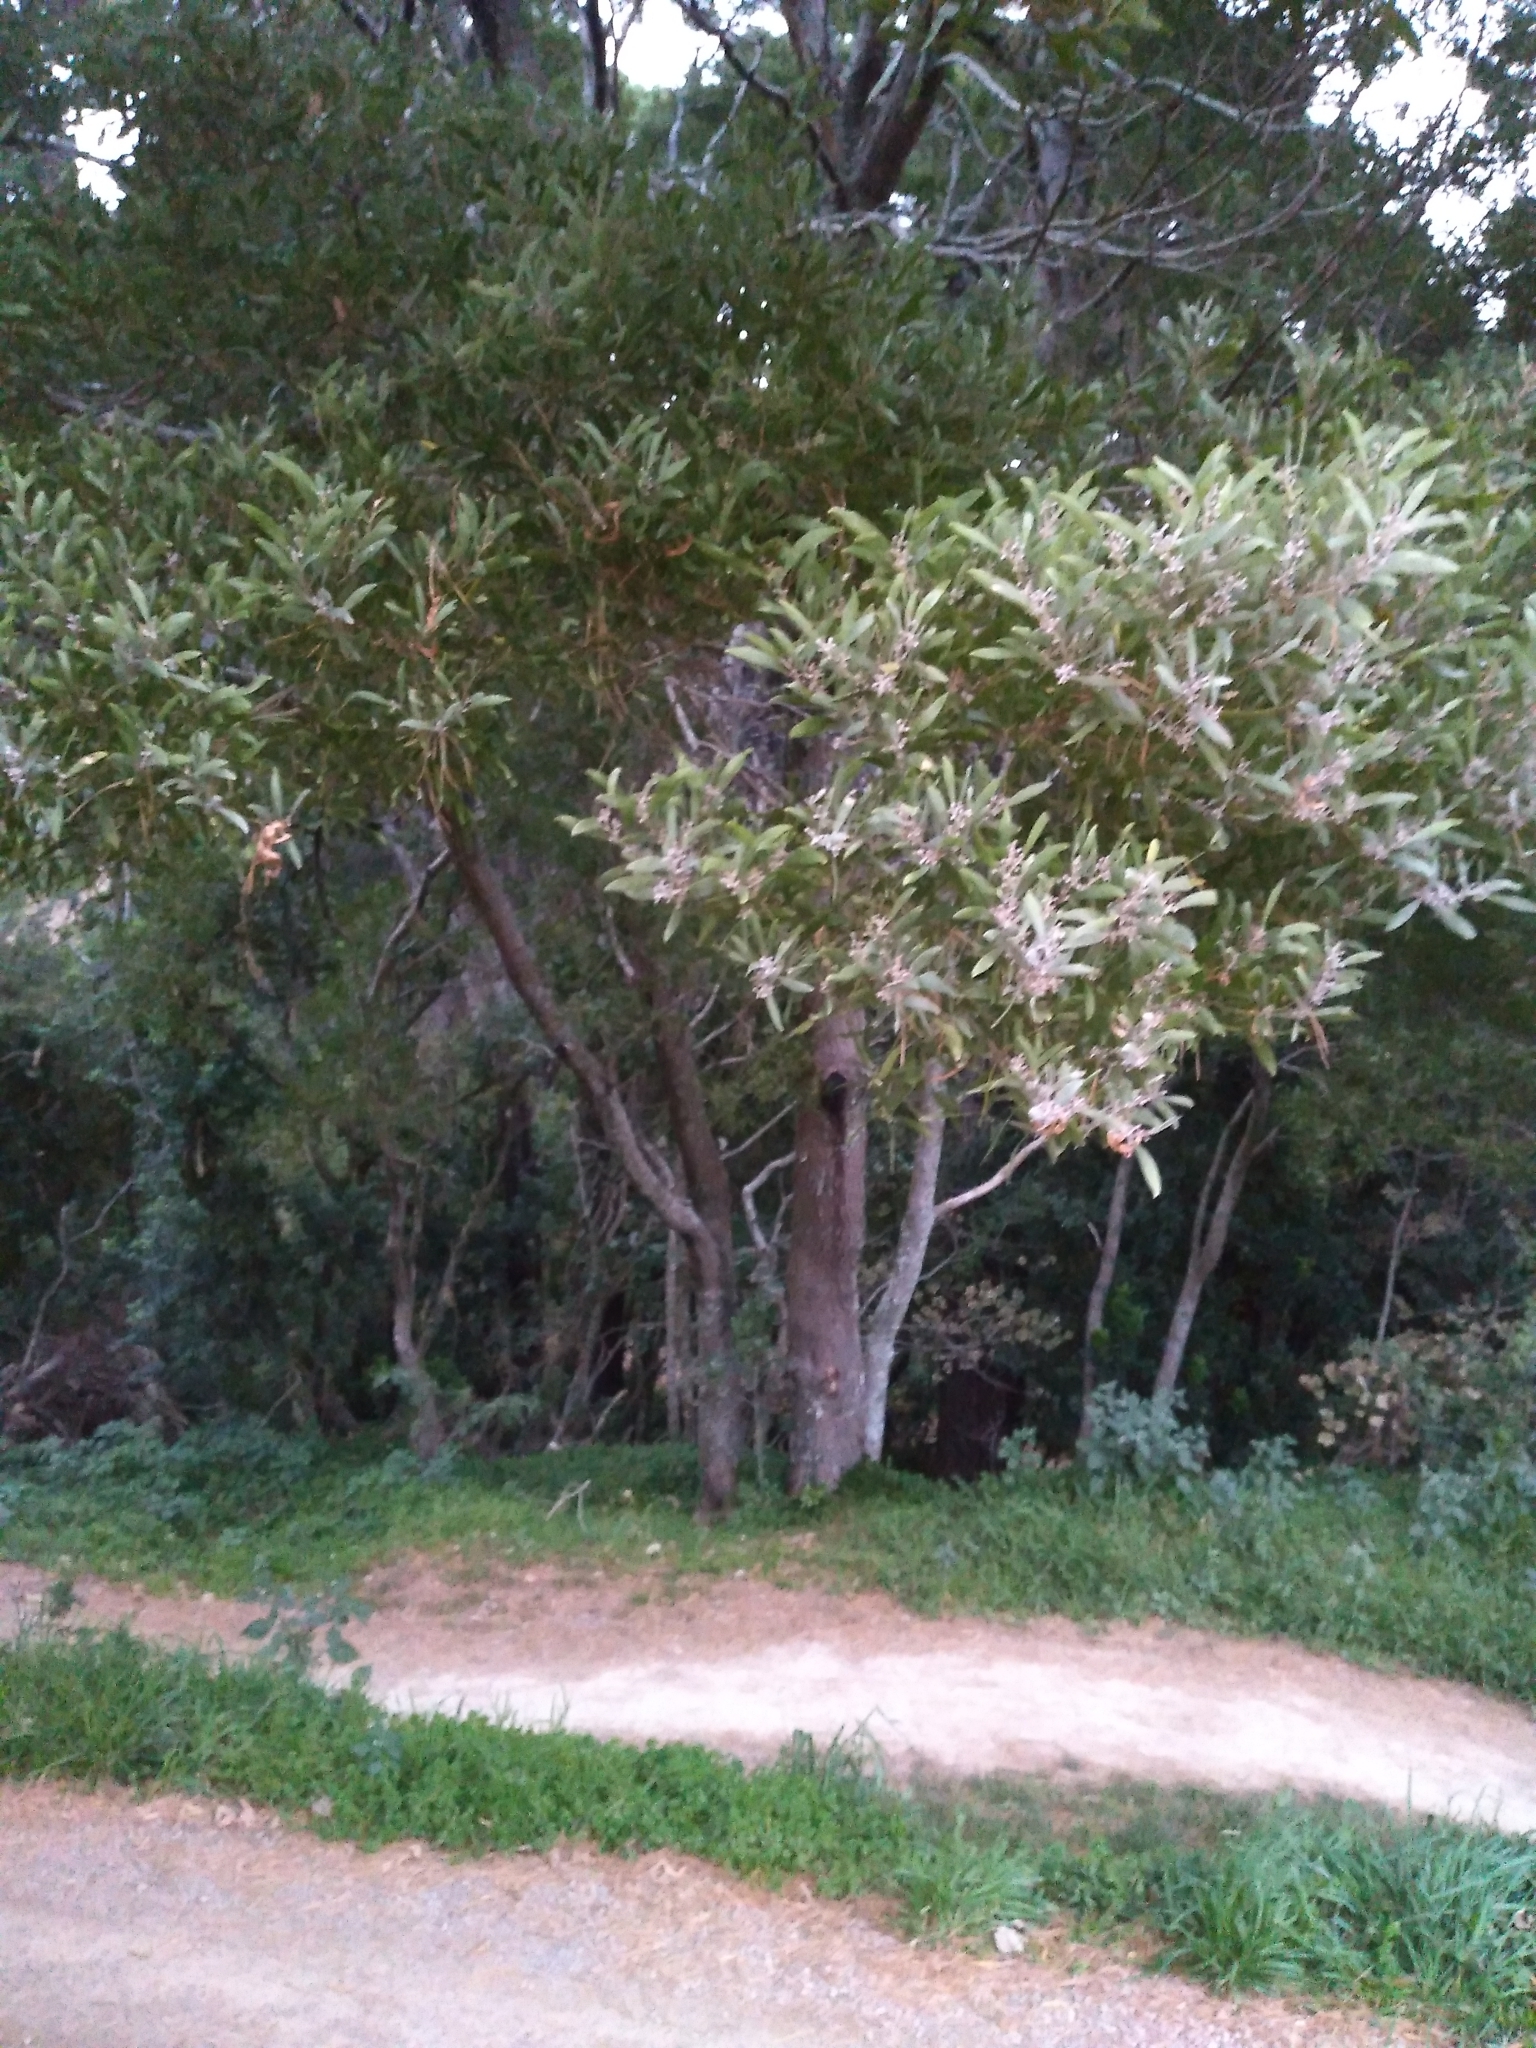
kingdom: Plantae
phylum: Tracheophyta
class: Magnoliopsida
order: Fabales
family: Fabaceae
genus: Acacia
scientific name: Acacia melanoxylon
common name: Blackwood
